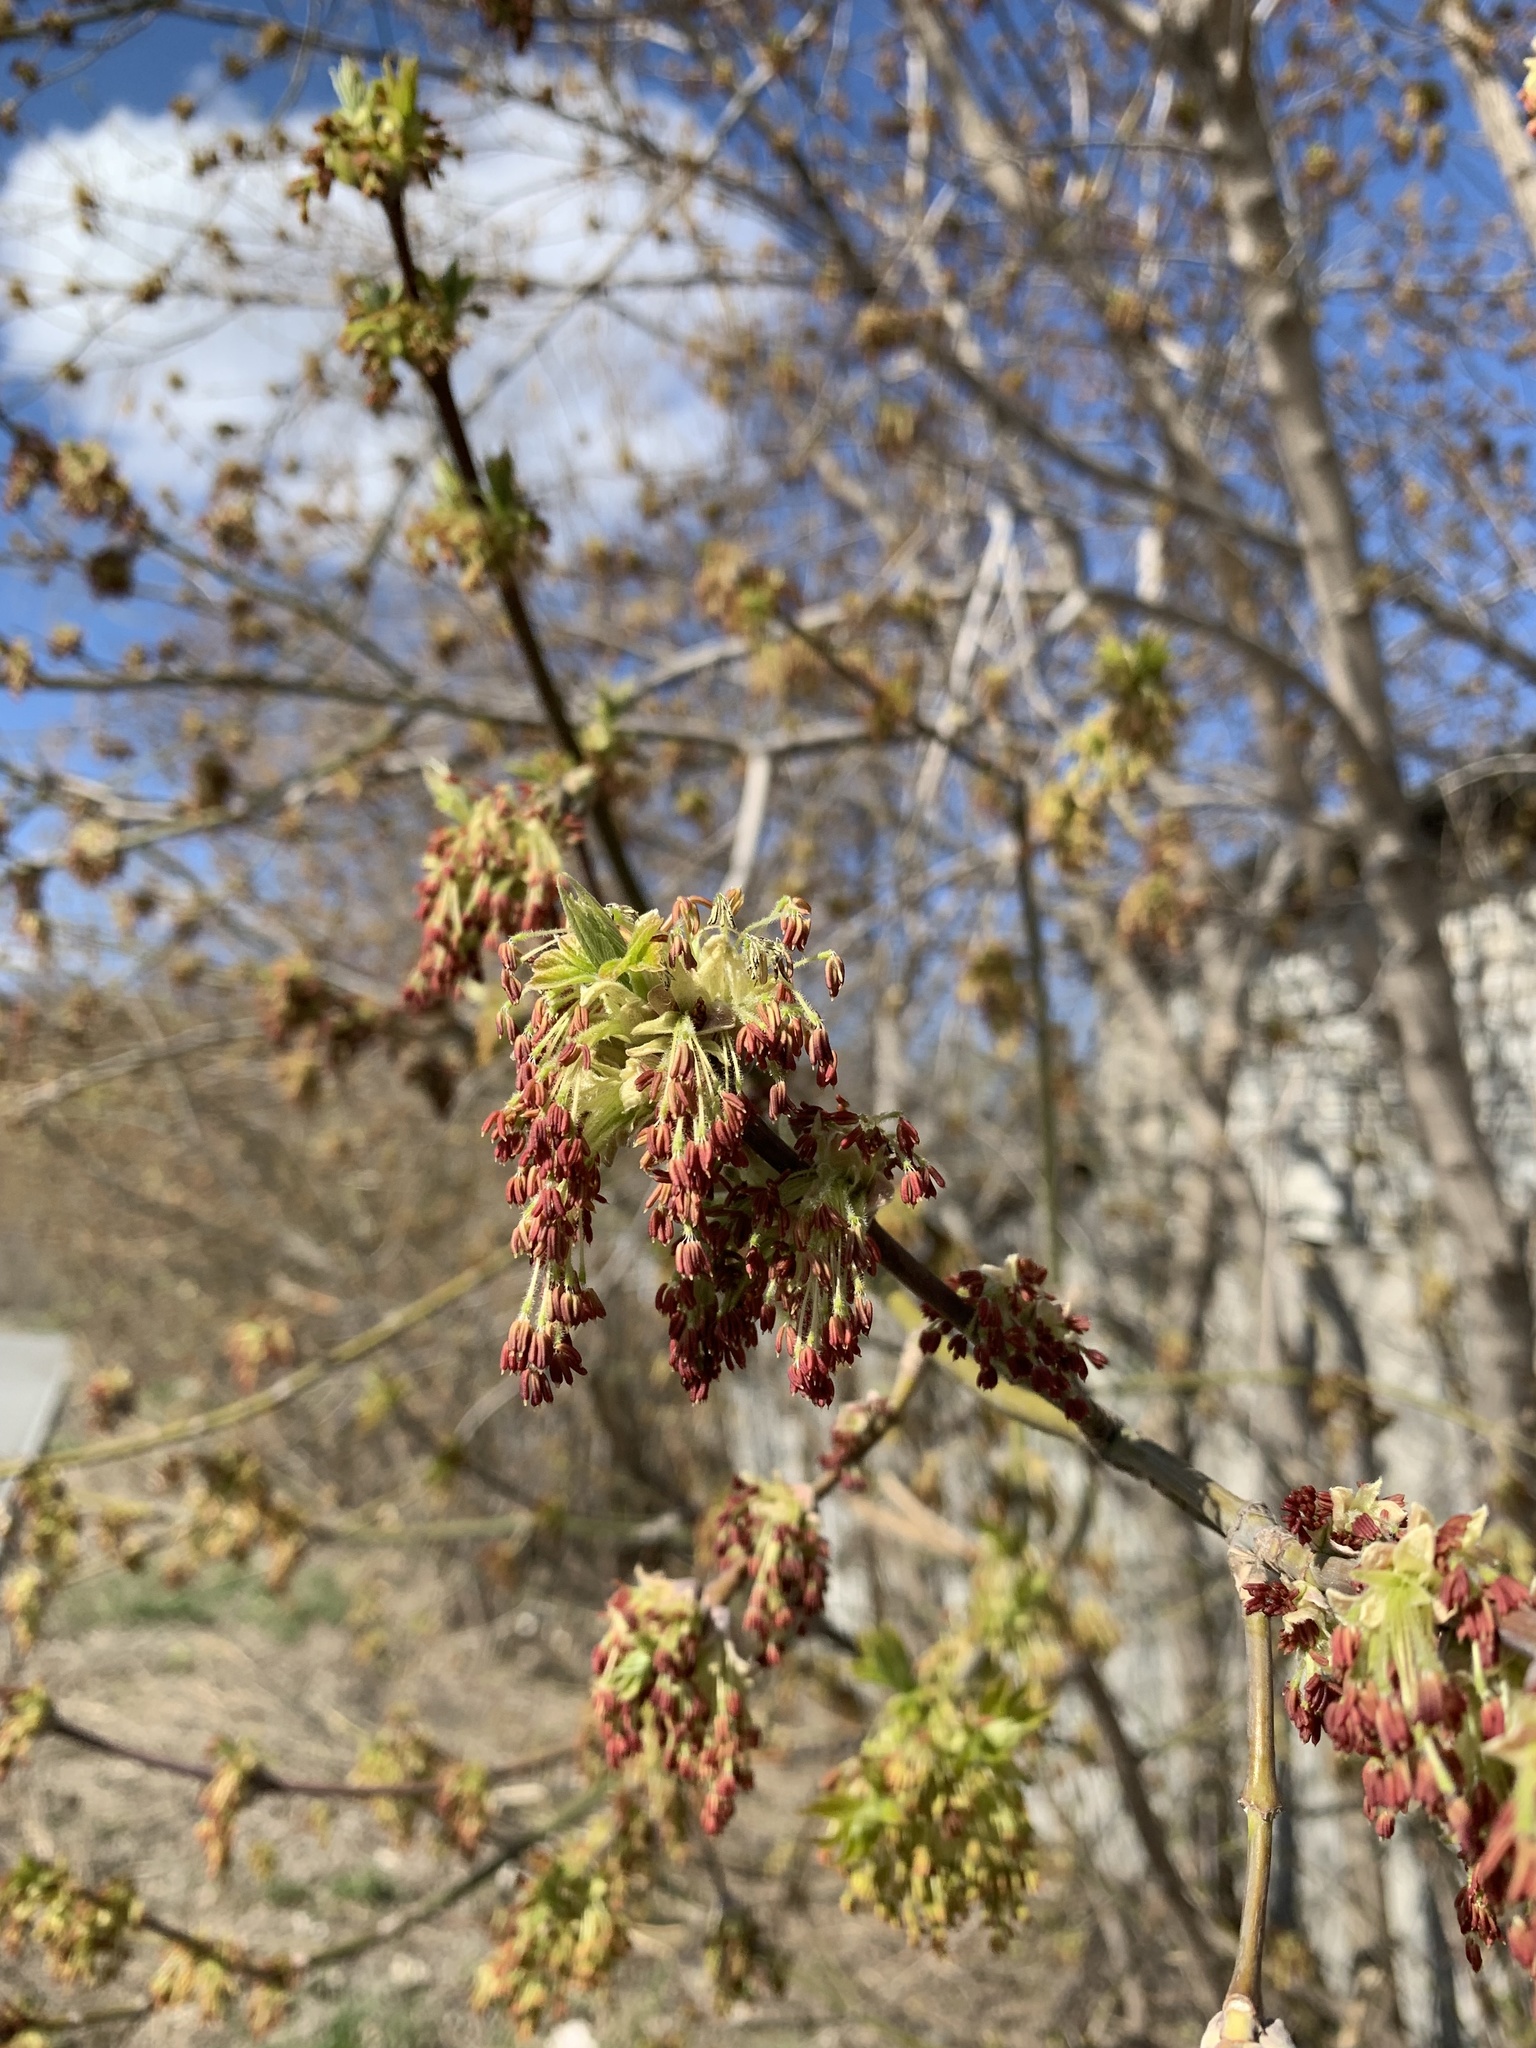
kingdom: Plantae
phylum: Tracheophyta
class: Magnoliopsida
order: Sapindales
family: Sapindaceae
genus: Acer
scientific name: Acer negundo
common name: Ashleaf maple
